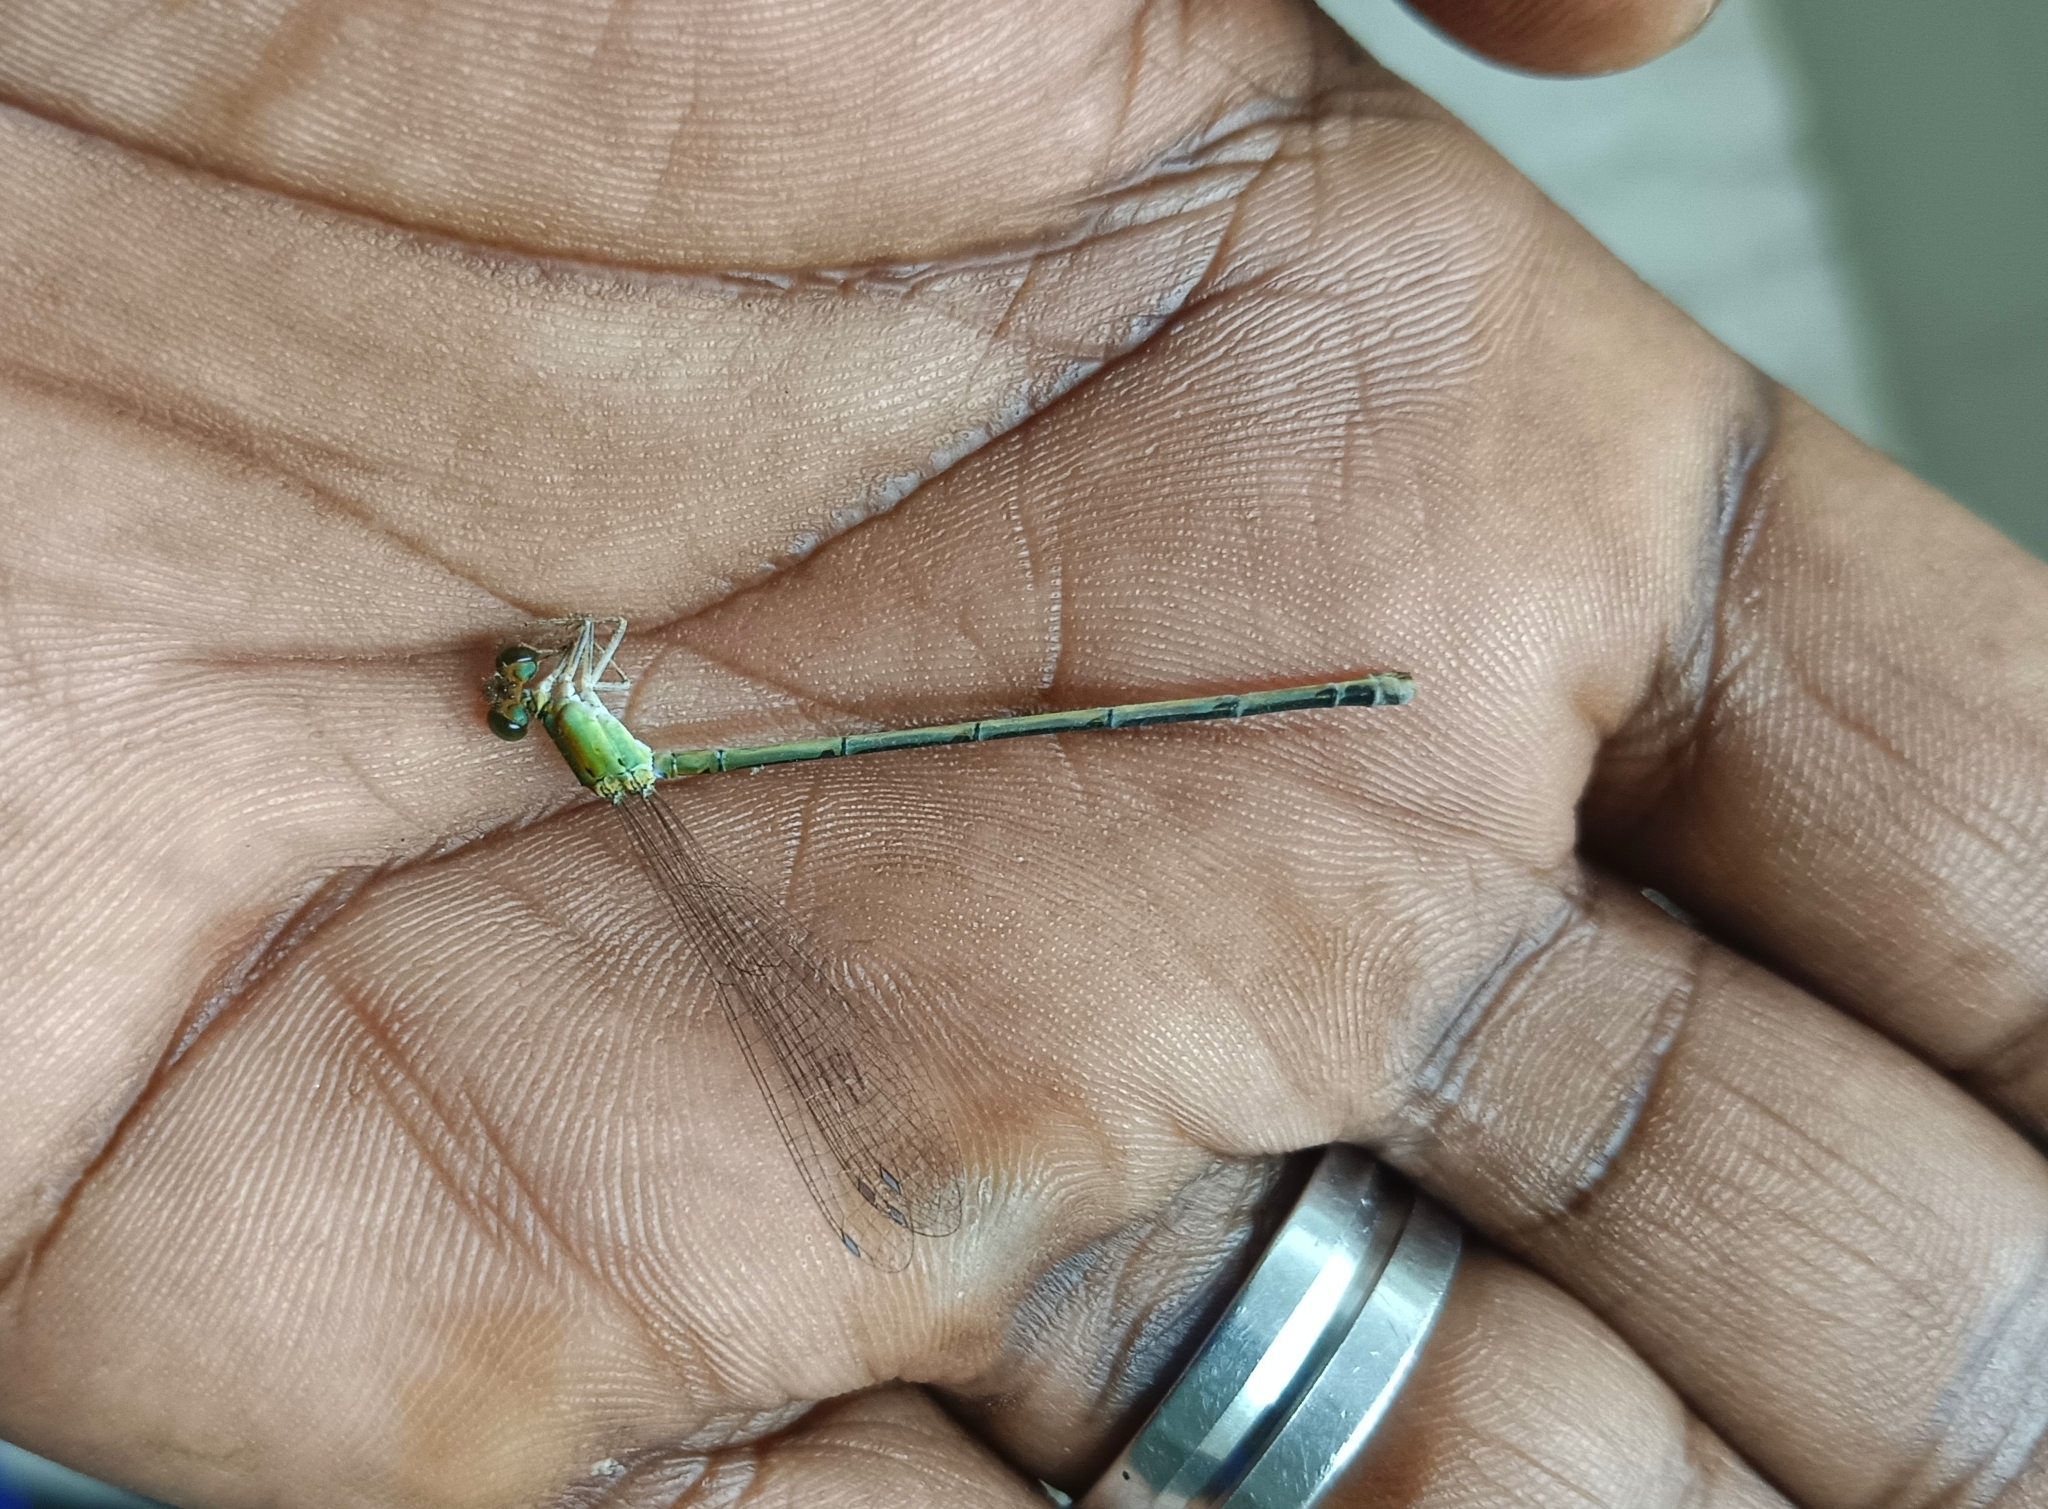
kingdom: Animalia
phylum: Arthropoda
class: Insecta
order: Odonata
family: Coenagrionidae
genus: Ischnura
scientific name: Ischnura senegalensis
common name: Tropical bluetail
